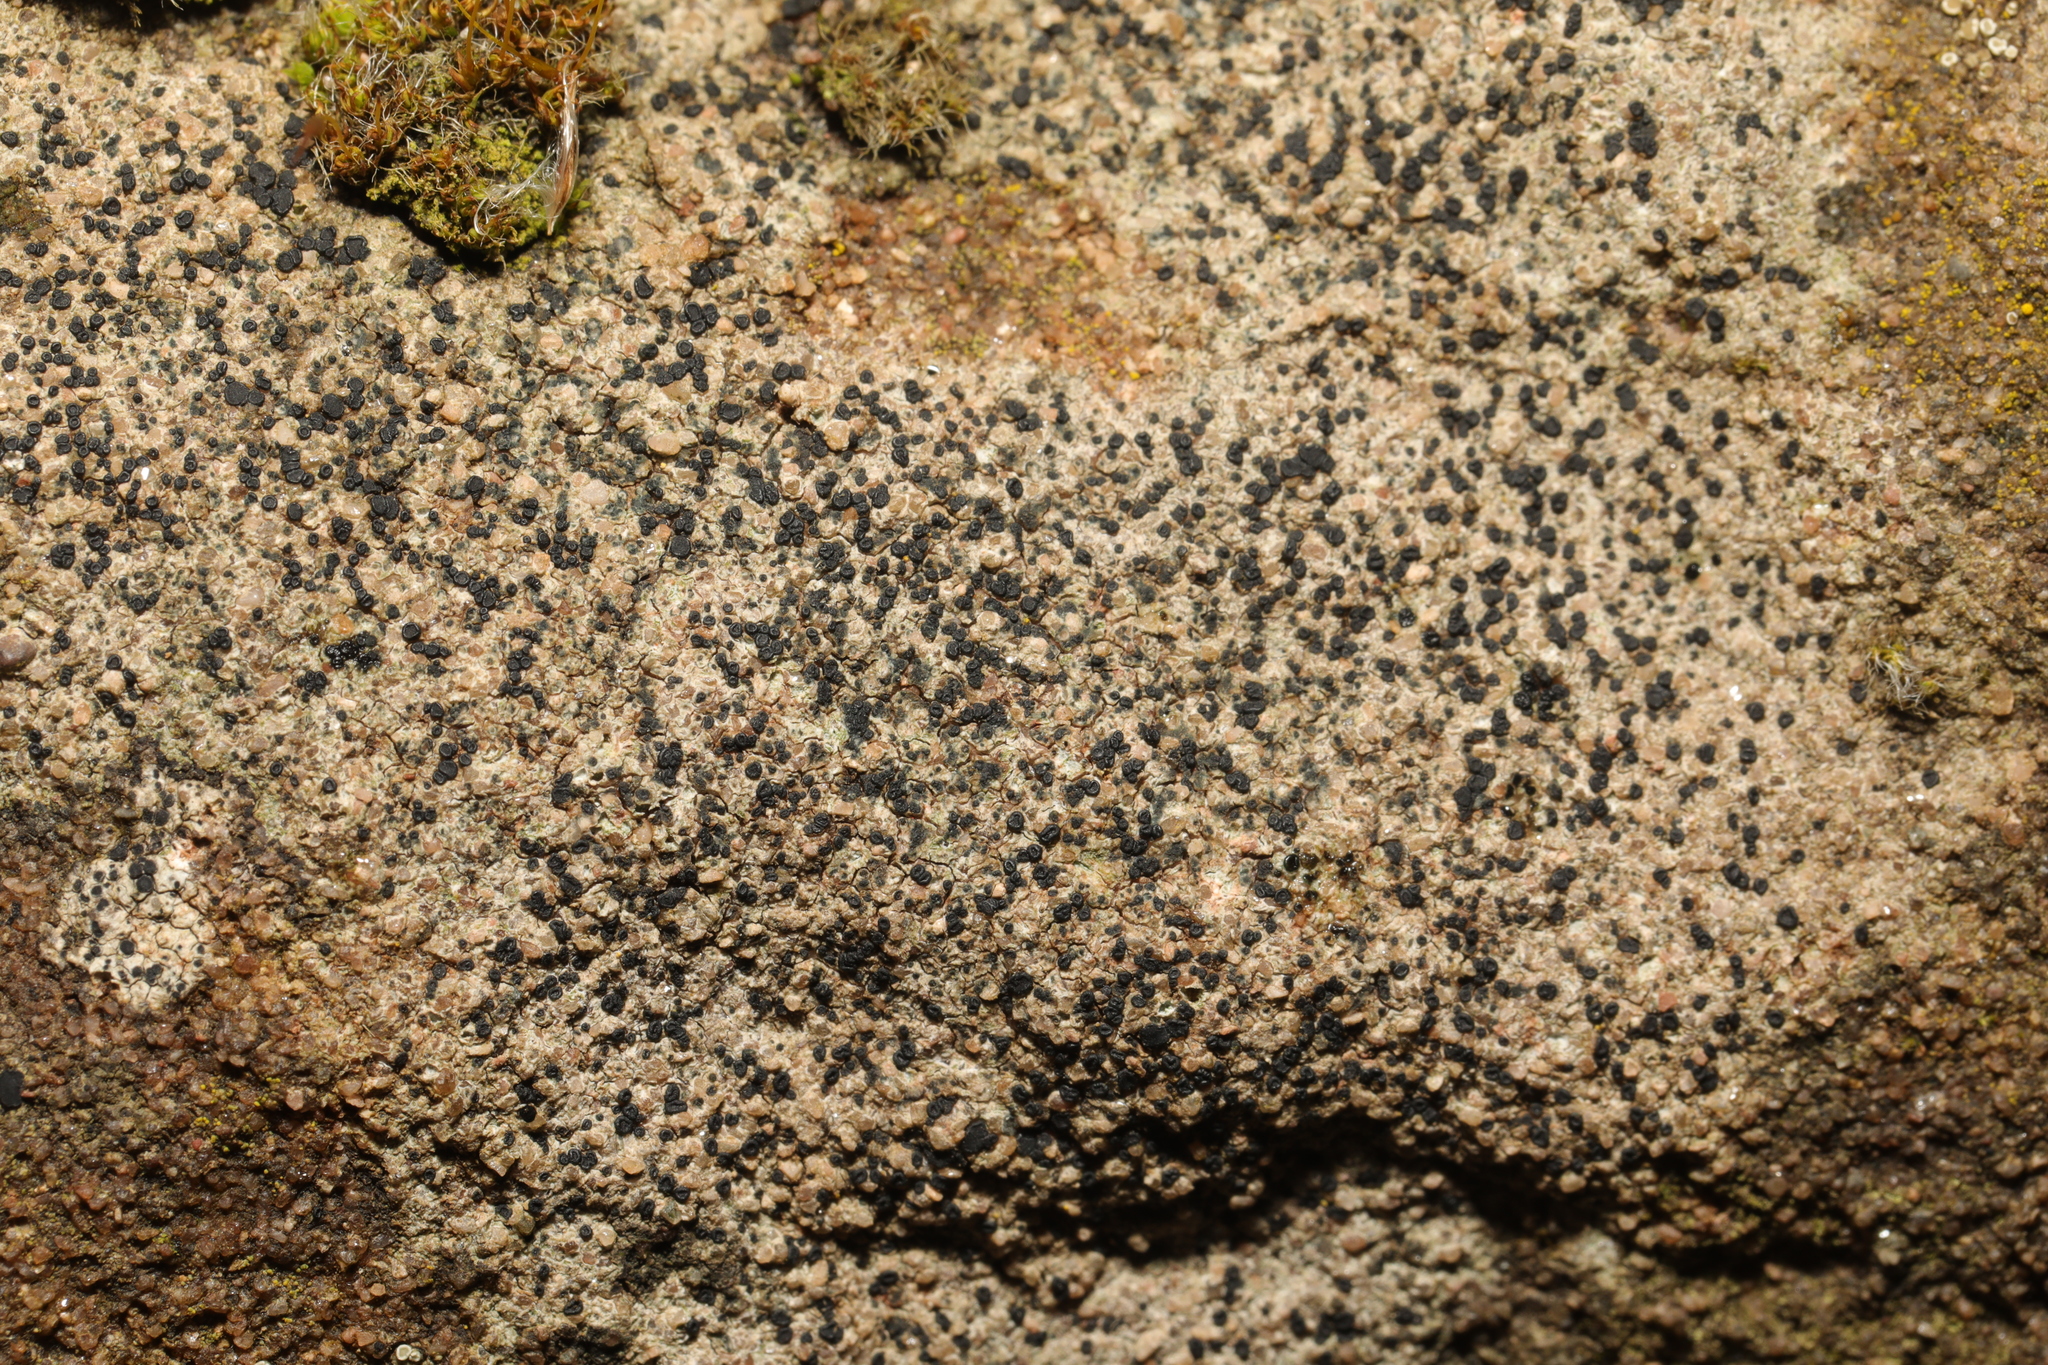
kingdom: Fungi
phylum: Ascomycota
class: Lecanoromycetes
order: Lecanorales
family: Lecanoraceae
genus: Lecidella
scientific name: Lecidella stigmatea
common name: Limestone disc lichen
